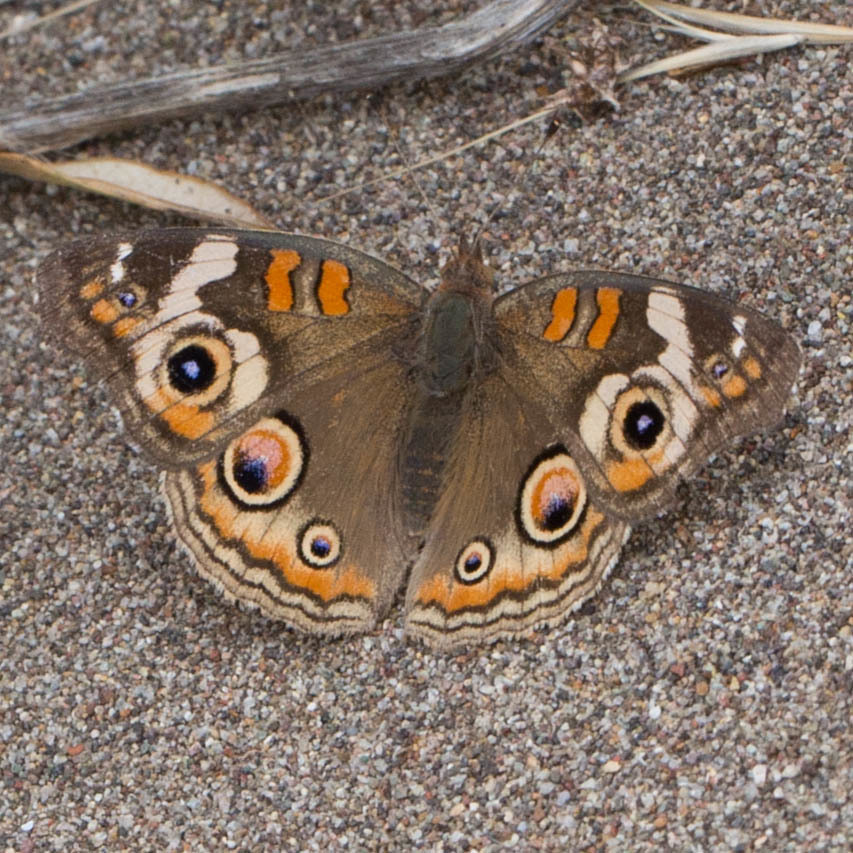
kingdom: Animalia
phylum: Arthropoda
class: Insecta
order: Lepidoptera
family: Nymphalidae
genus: Junonia
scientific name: Junonia grisea
